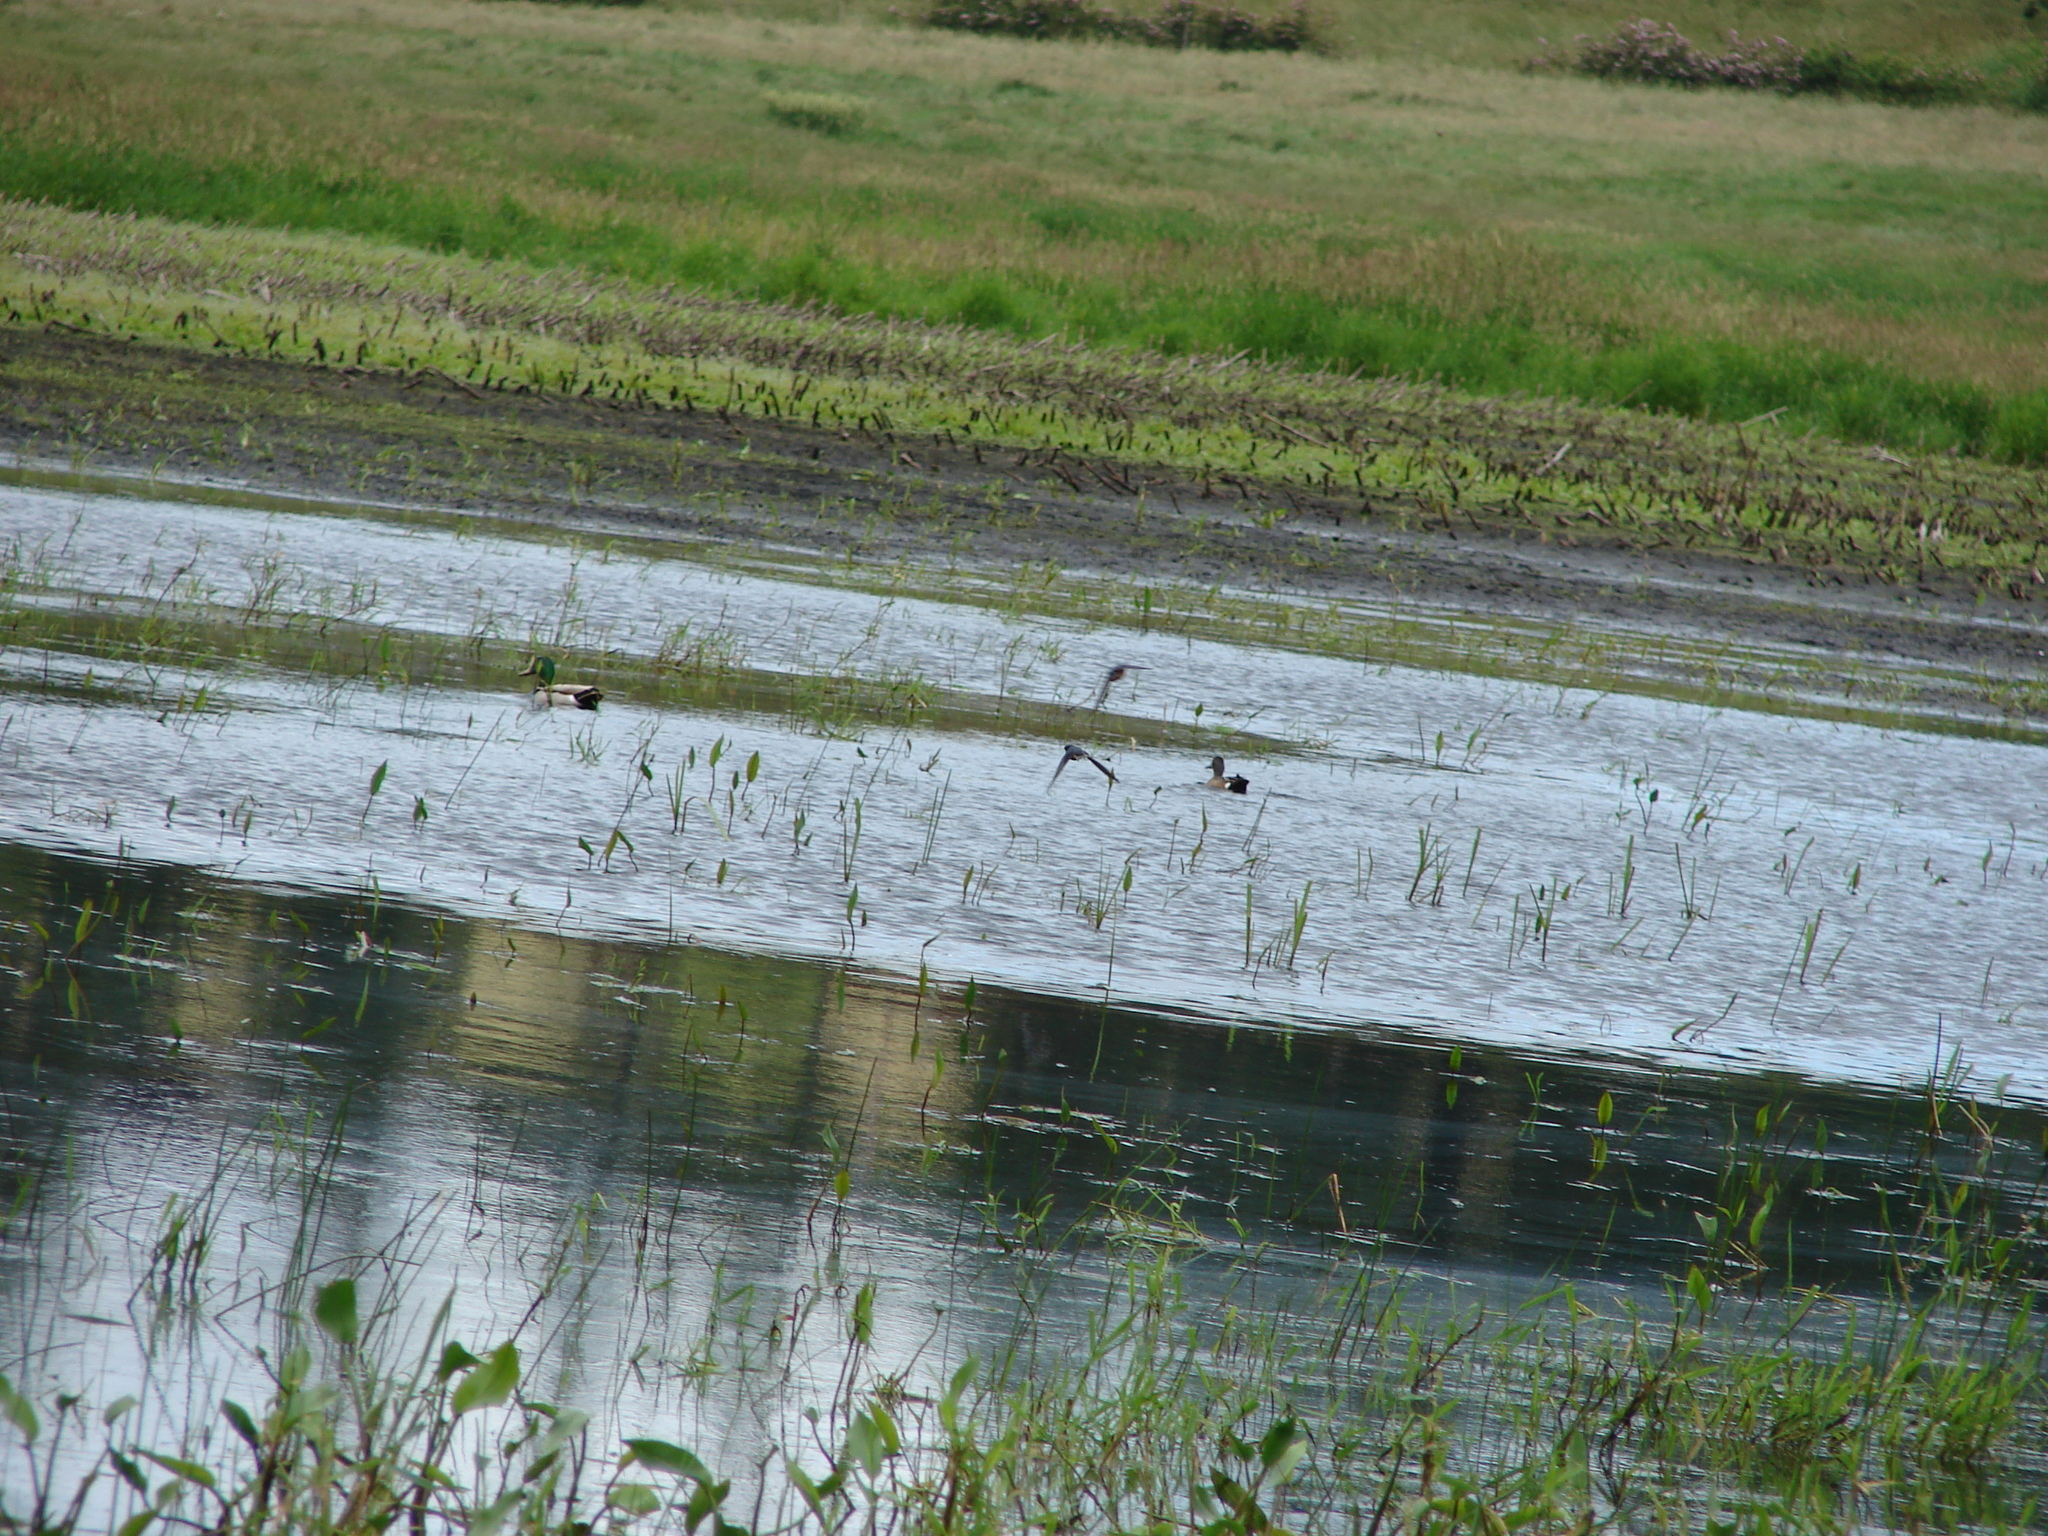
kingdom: Animalia
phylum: Chordata
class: Aves
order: Anseriformes
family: Anatidae
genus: Anas
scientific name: Anas platyrhynchos
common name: Mallard
